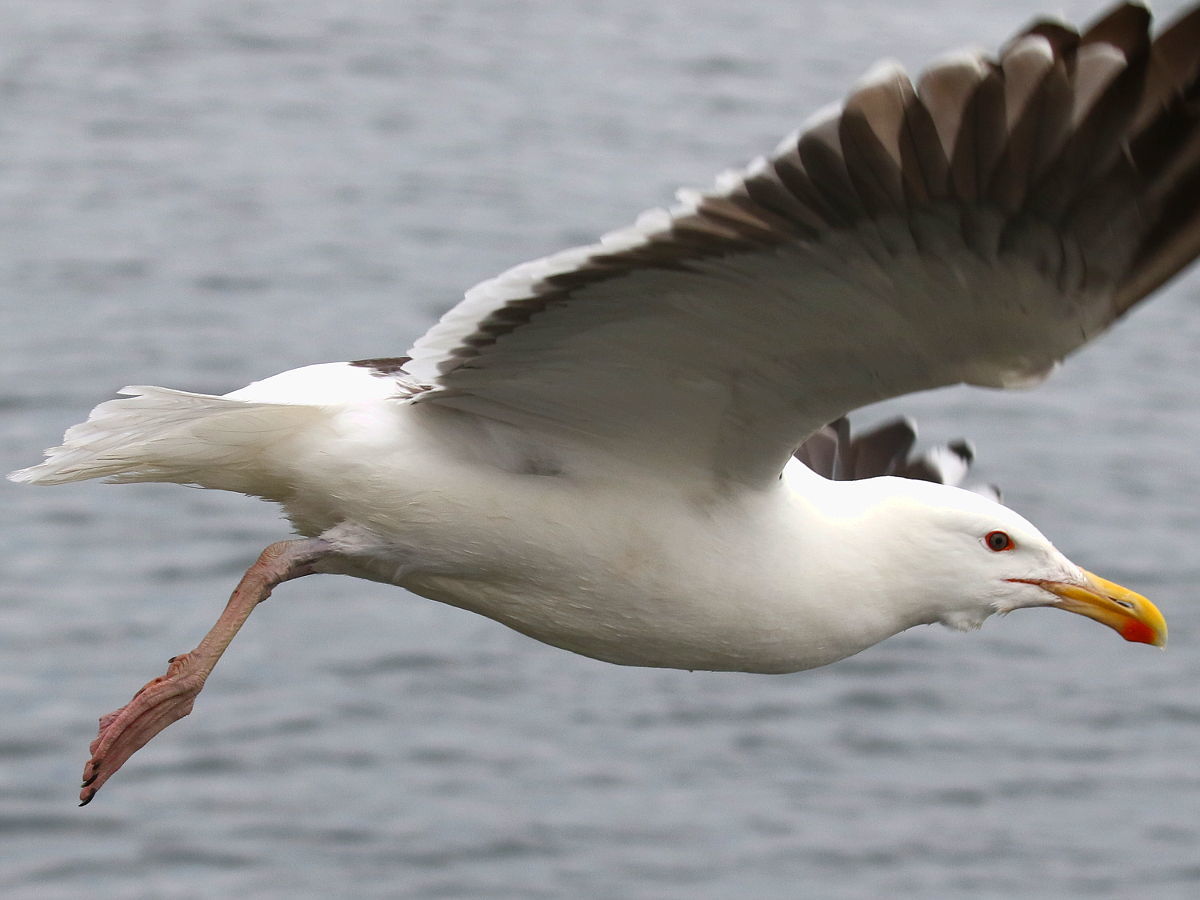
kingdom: Animalia
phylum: Chordata
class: Aves
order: Charadriiformes
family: Laridae
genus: Larus
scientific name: Larus marinus
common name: Great black-backed gull
